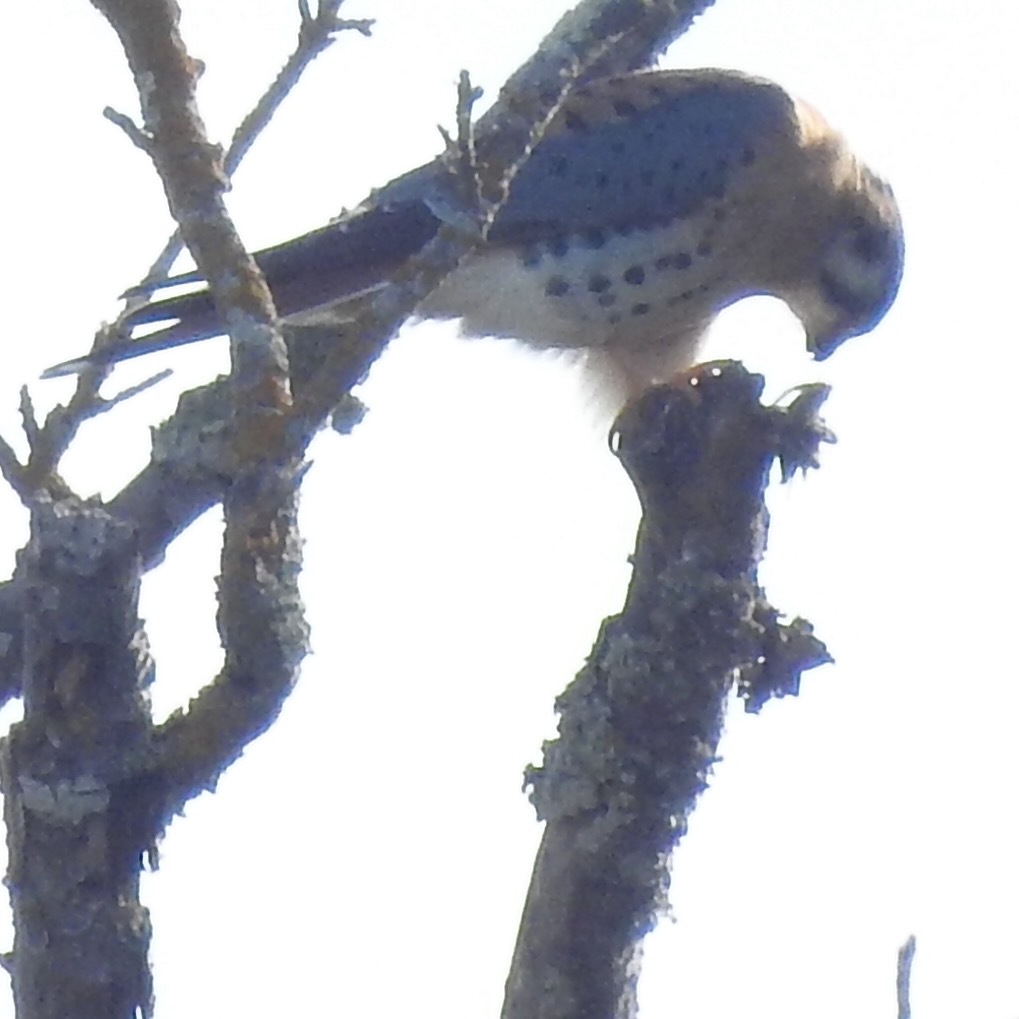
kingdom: Animalia
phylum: Chordata
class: Aves
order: Falconiformes
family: Falconidae
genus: Falco
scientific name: Falco sparverius
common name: American kestrel
